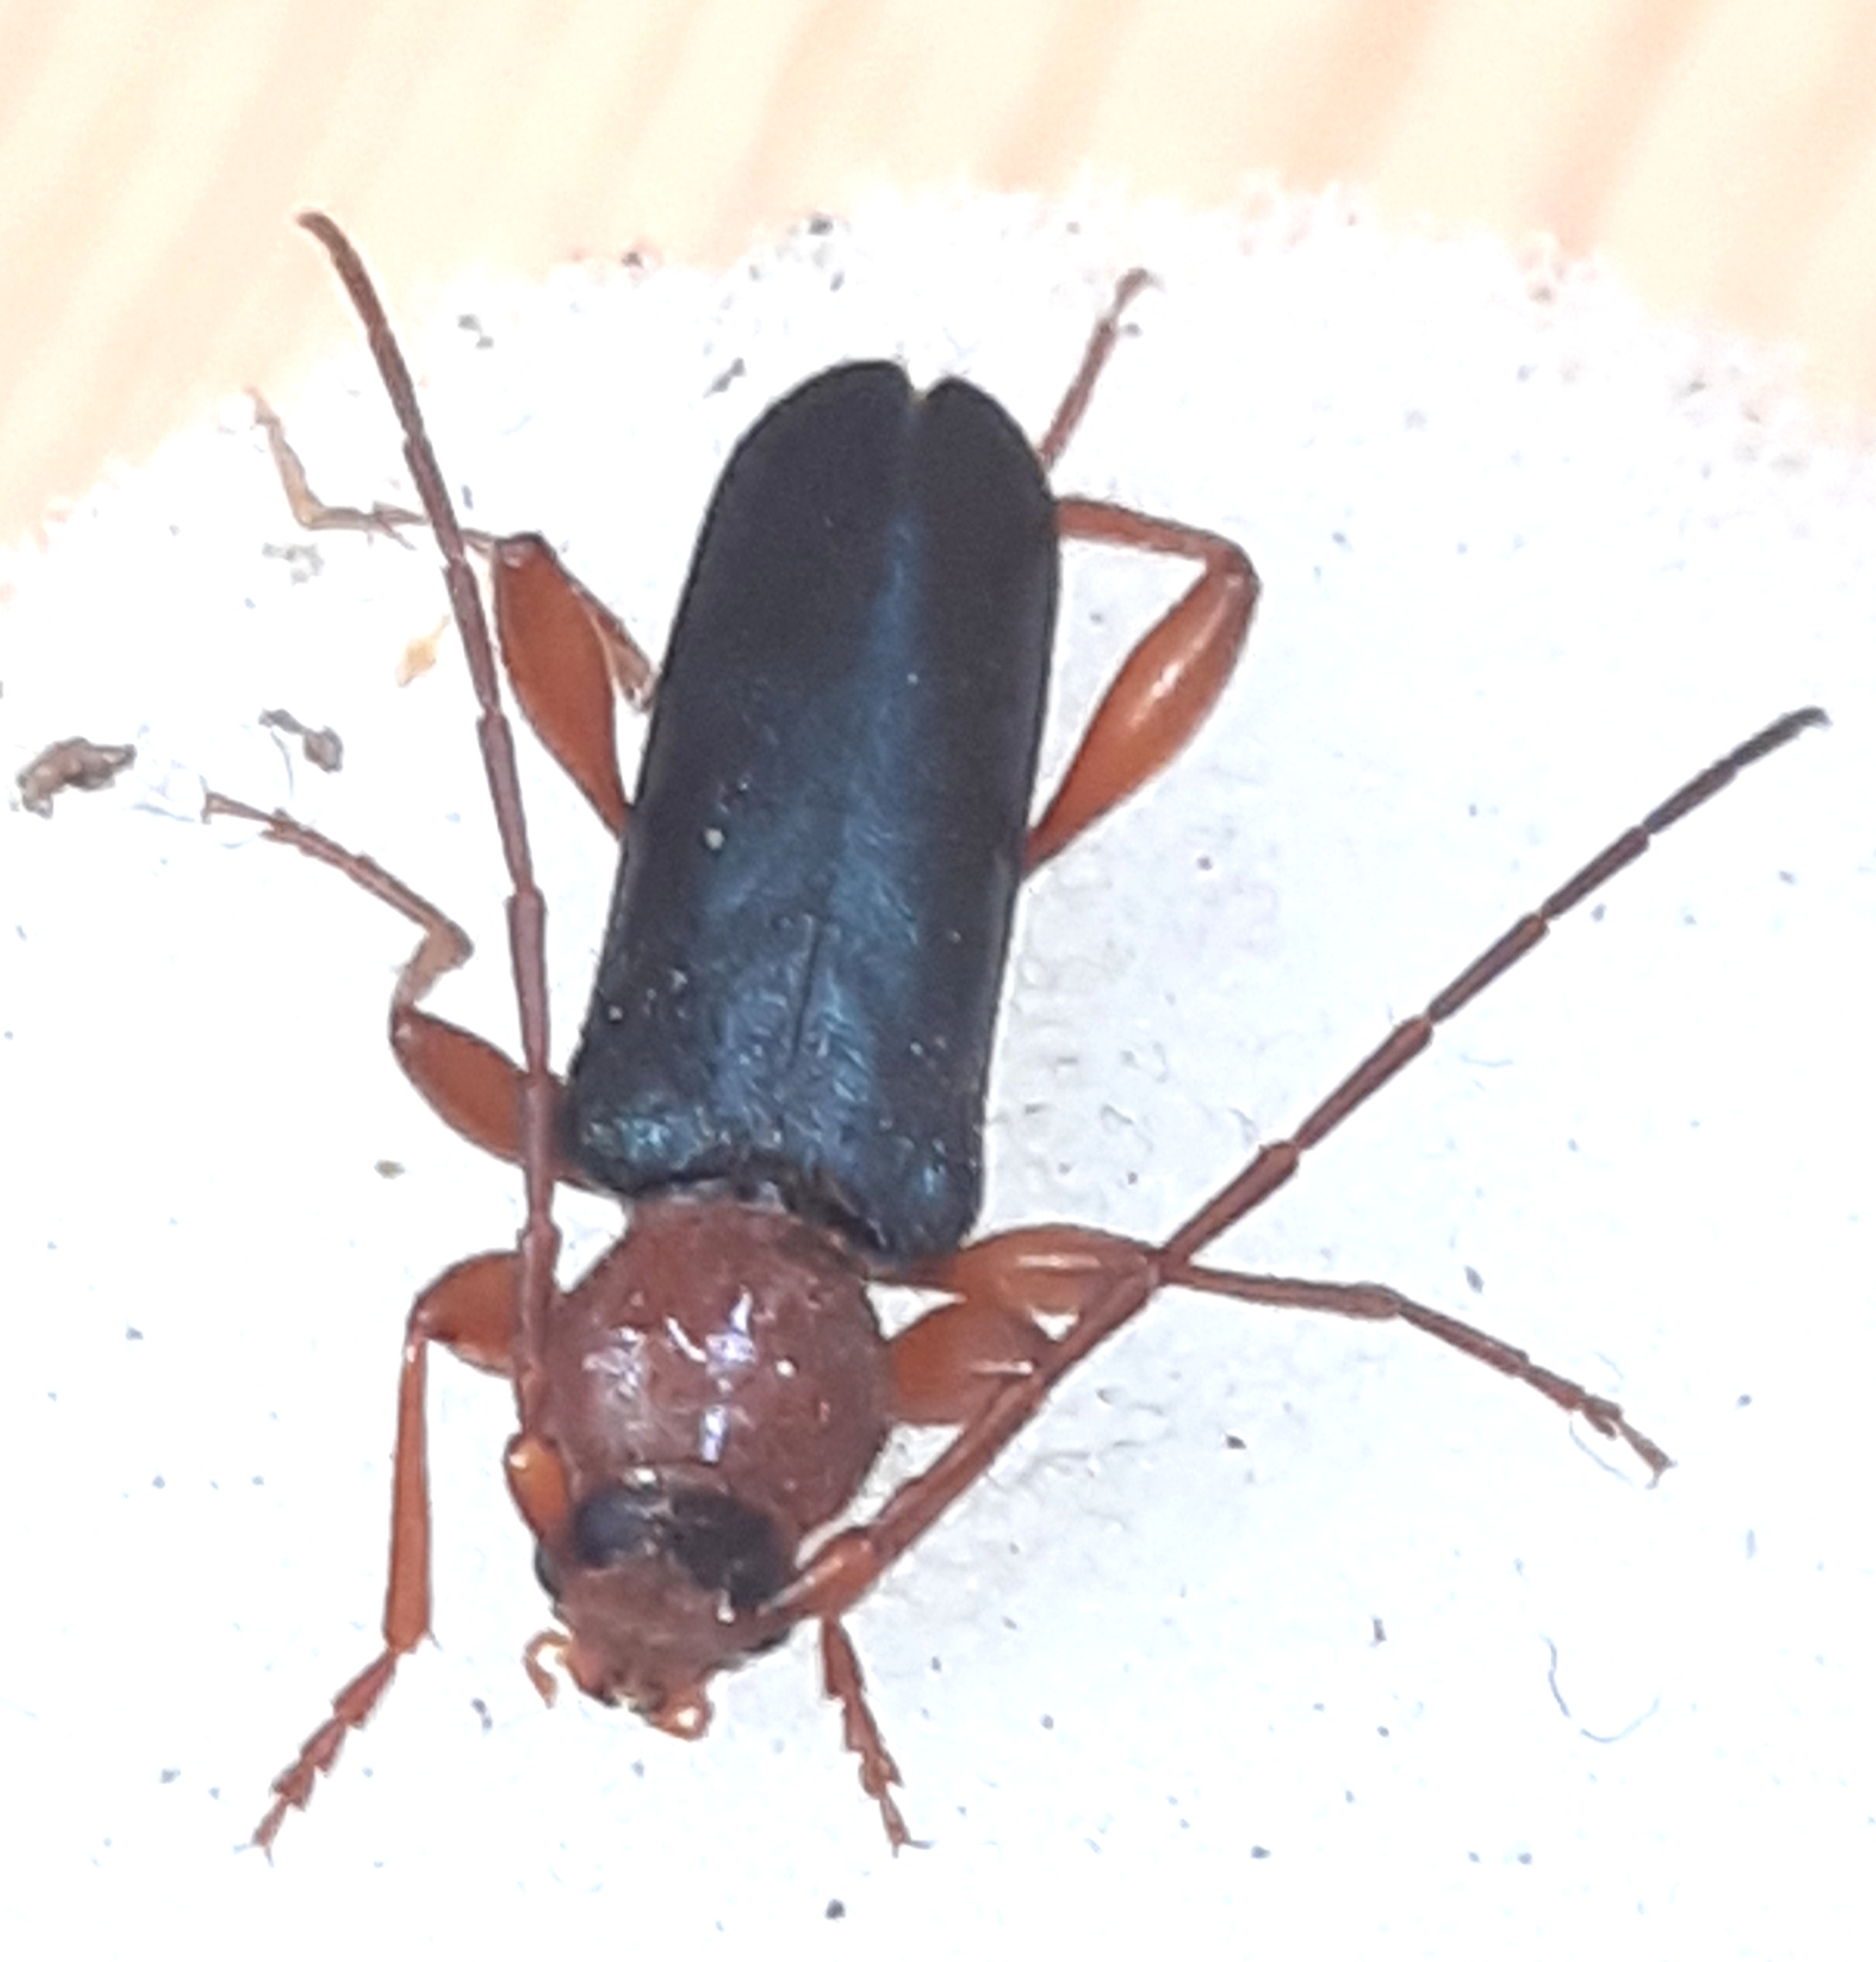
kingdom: Animalia
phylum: Arthropoda
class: Insecta
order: Coleoptera
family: Cerambycidae
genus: Phymatodes
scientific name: Phymatodes testaceus
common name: Long-horned beetle
